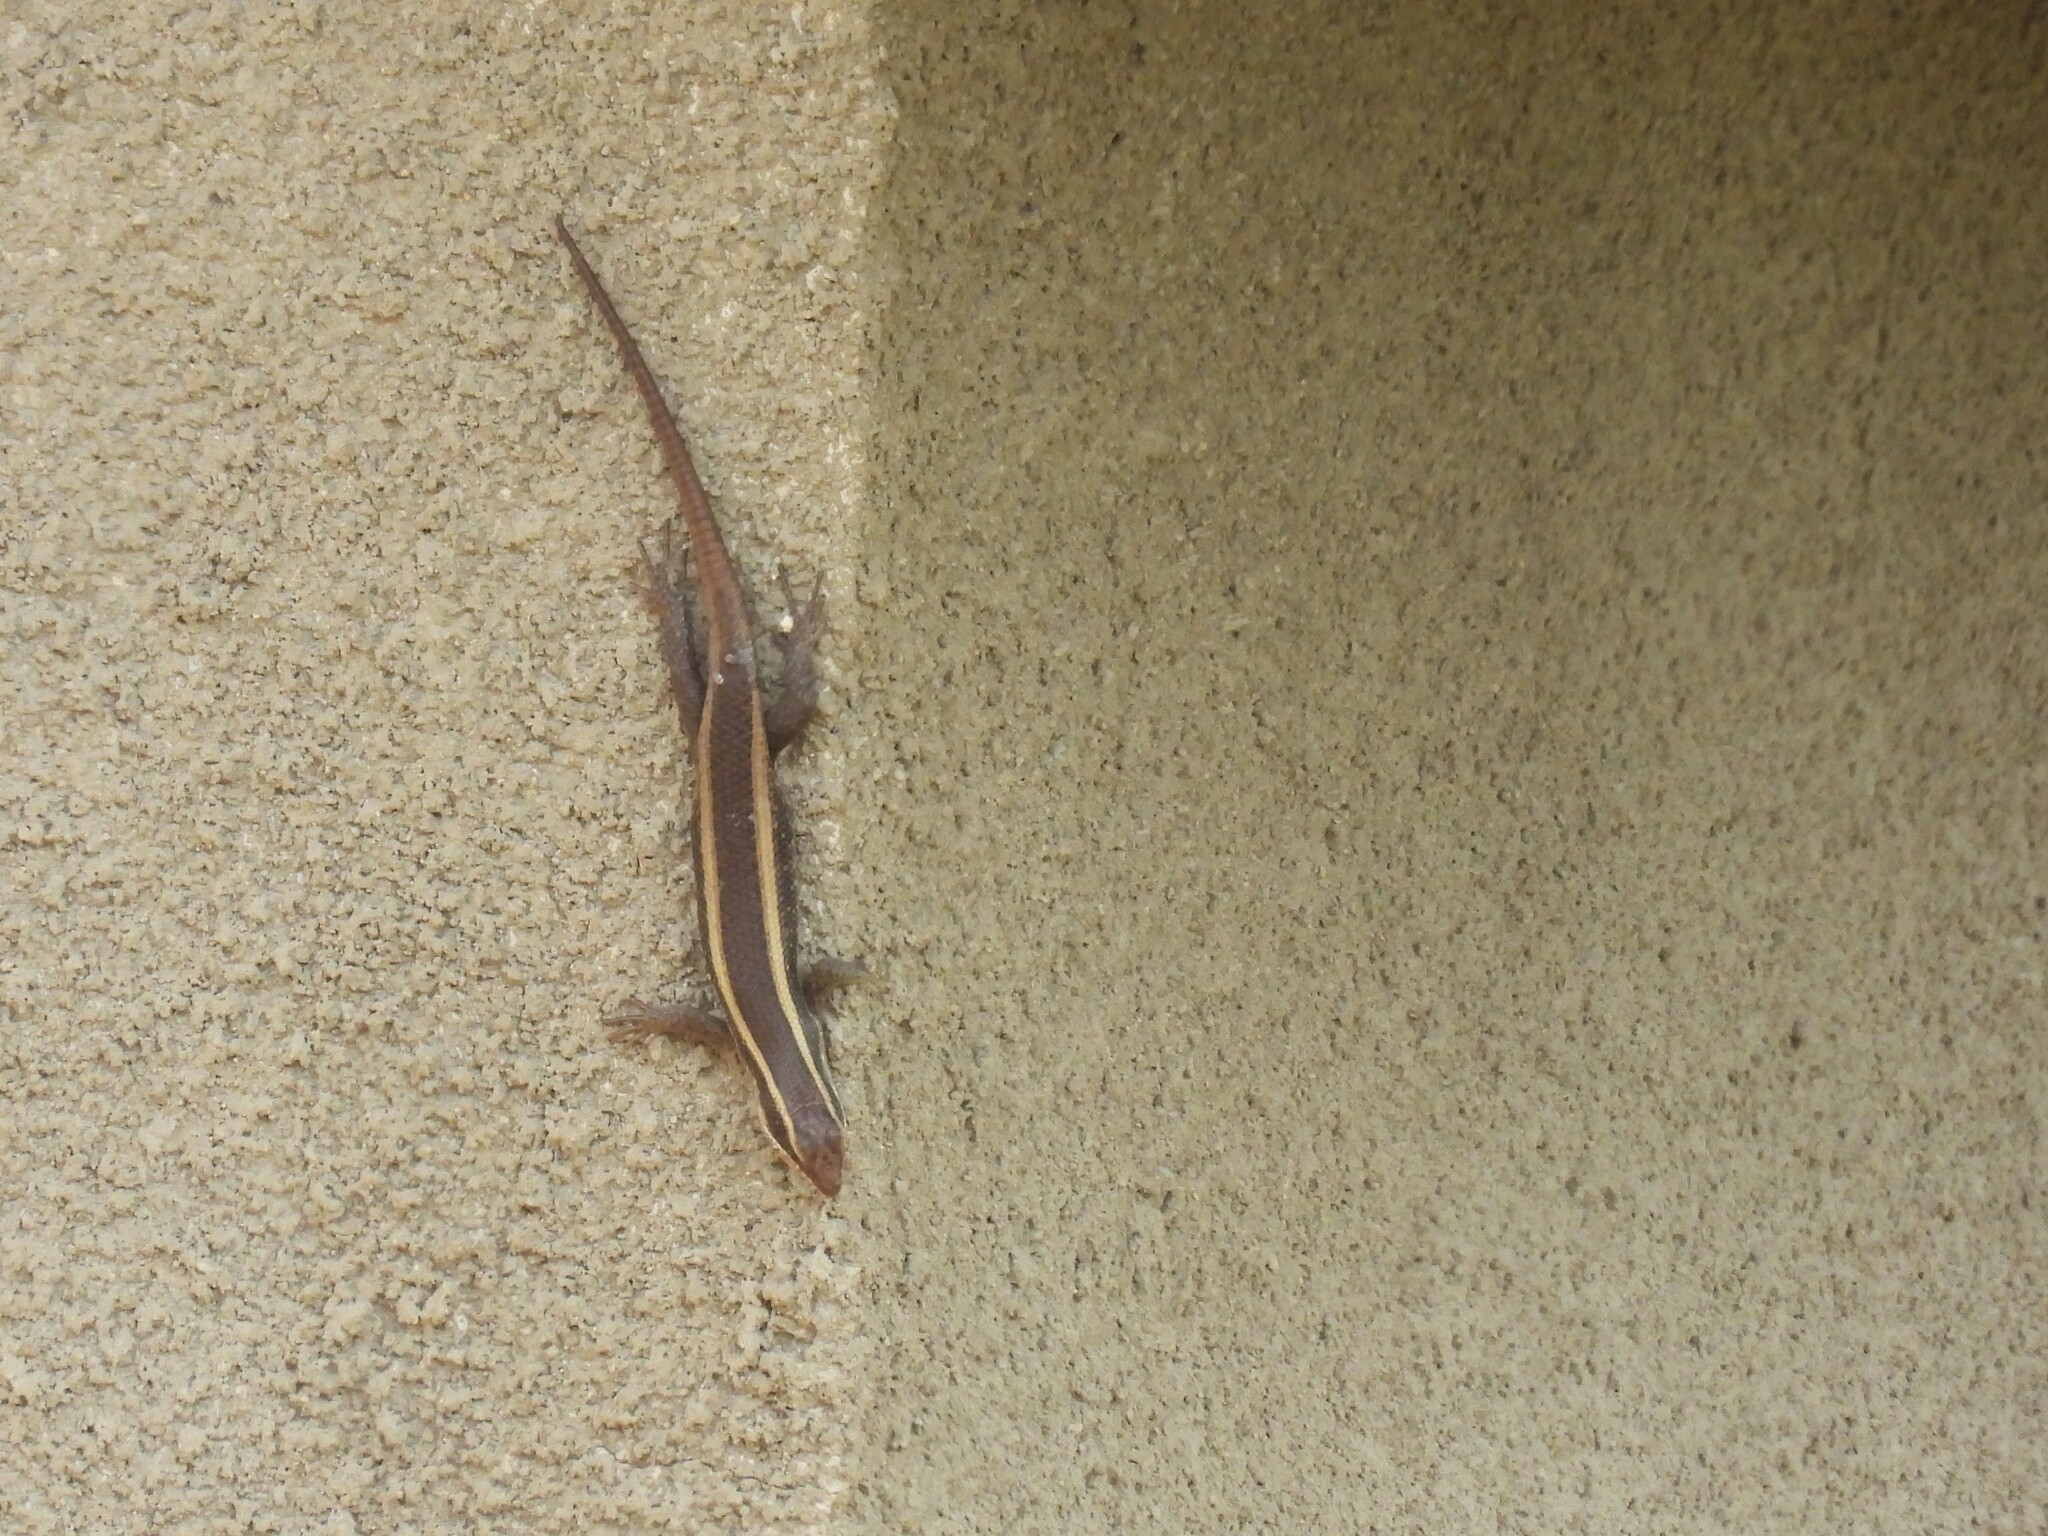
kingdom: Animalia
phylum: Chordata
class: Squamata
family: Scincidae
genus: Trachylepis
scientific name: Trachylepis striata
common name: African striped mabuya
